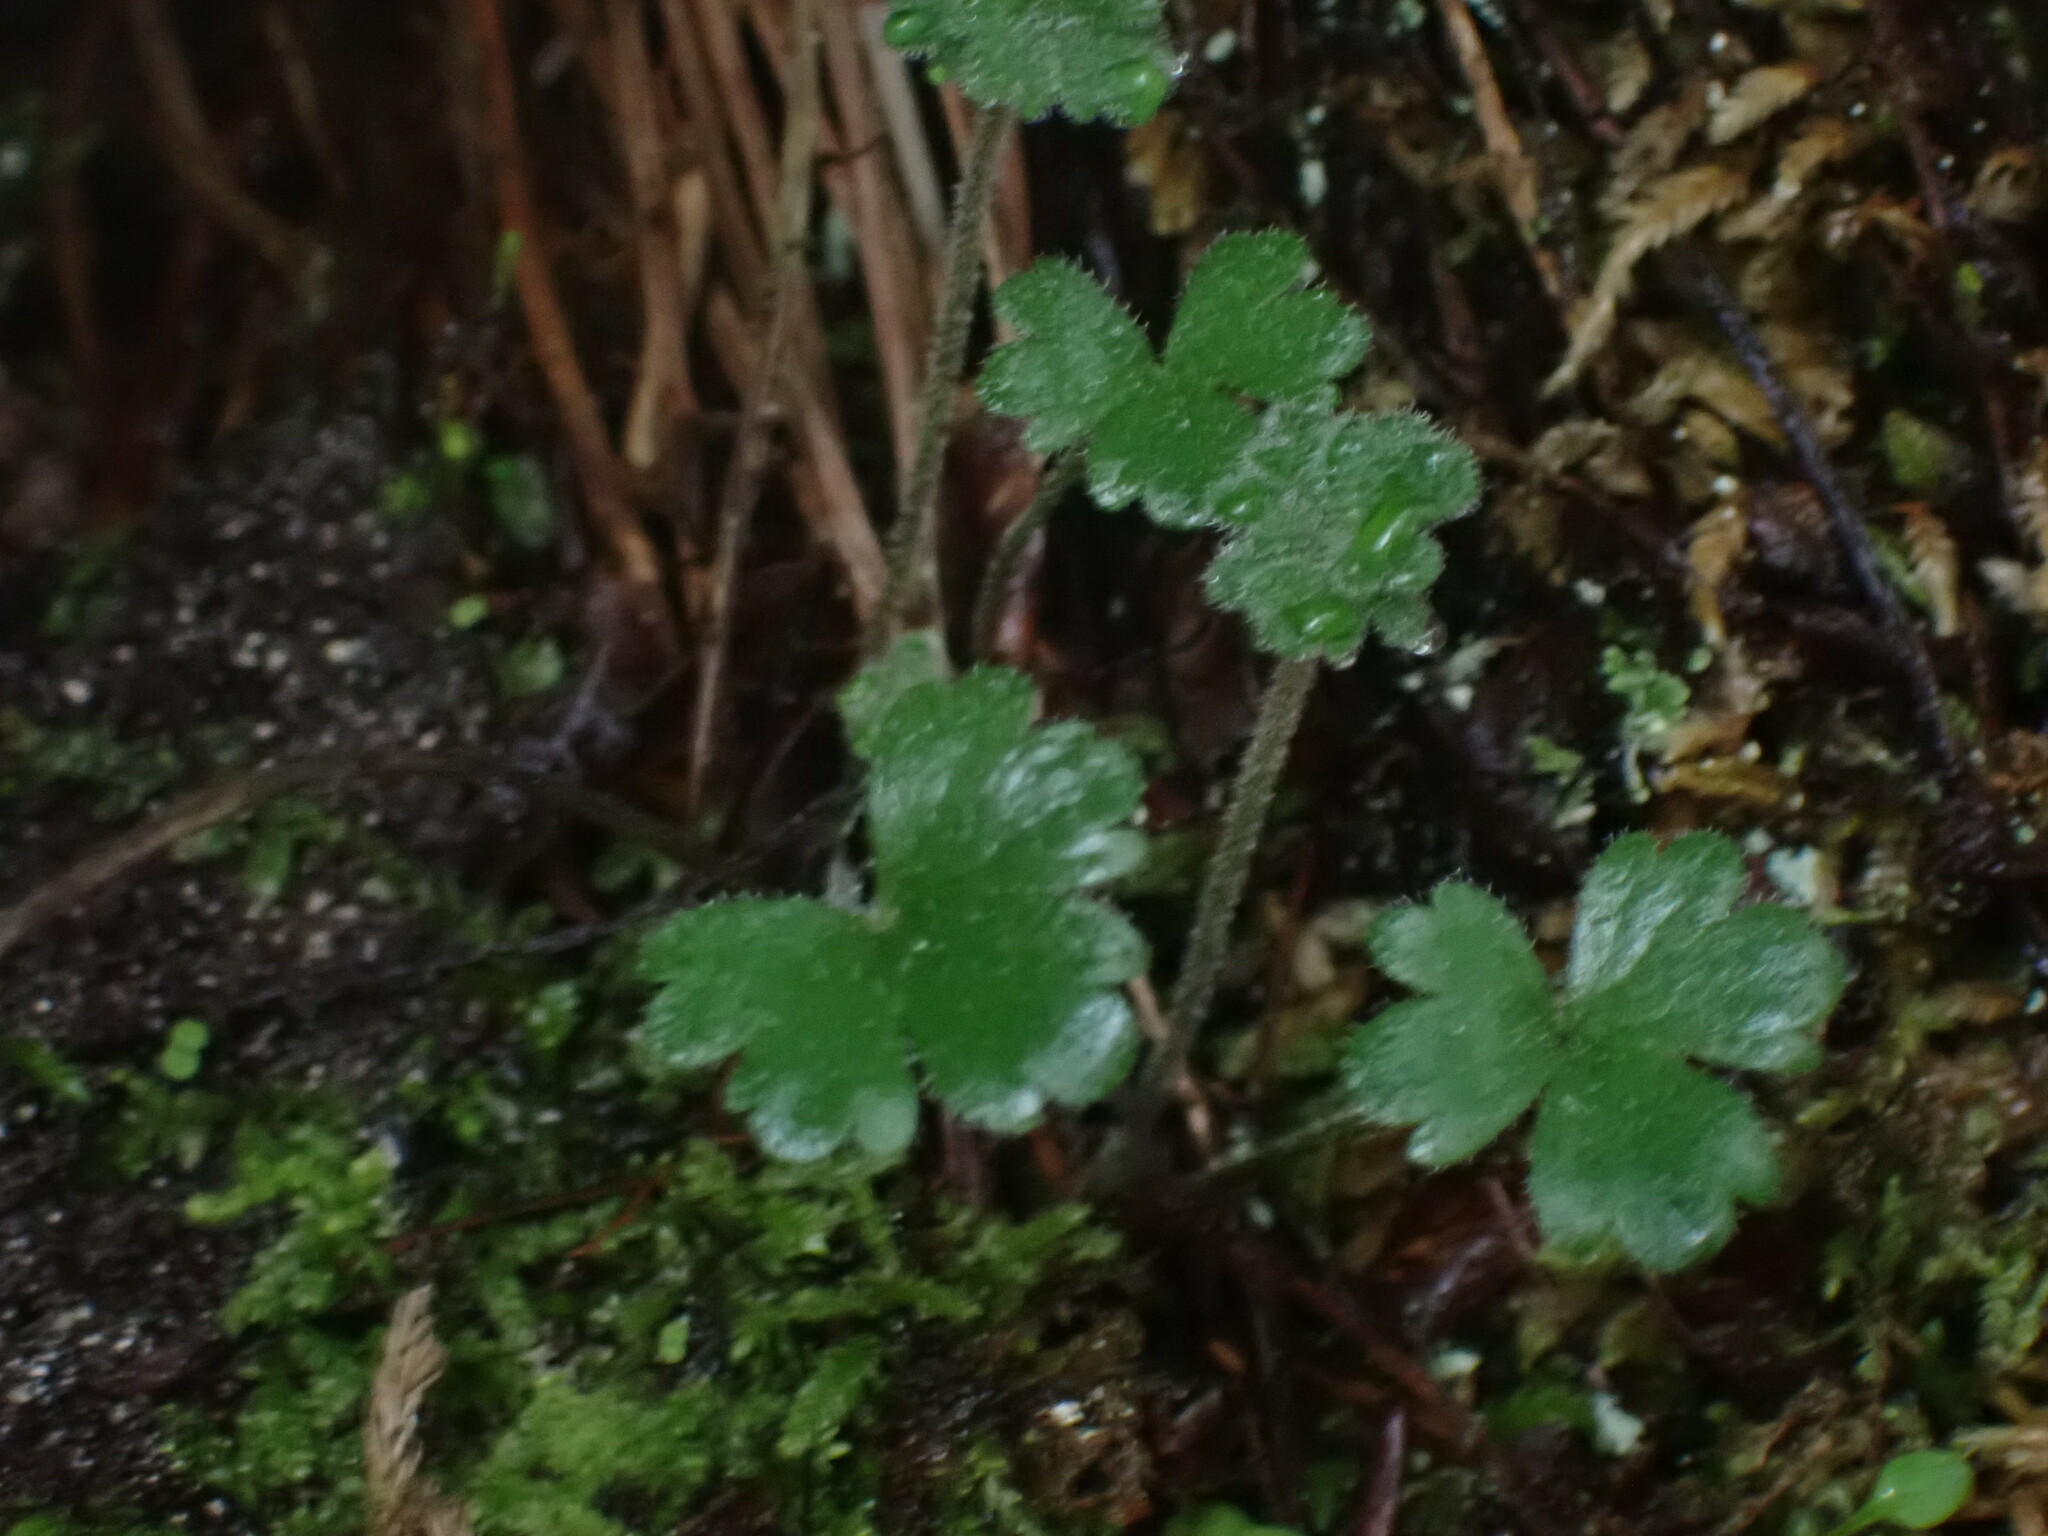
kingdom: Plantae
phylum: Tracheophyta
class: Magnoliopsida
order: Saxifragales
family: Saxifragaceae
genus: Lithophragma
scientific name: Lithophragma parviflorum
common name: Small-flowered fringe-cup
